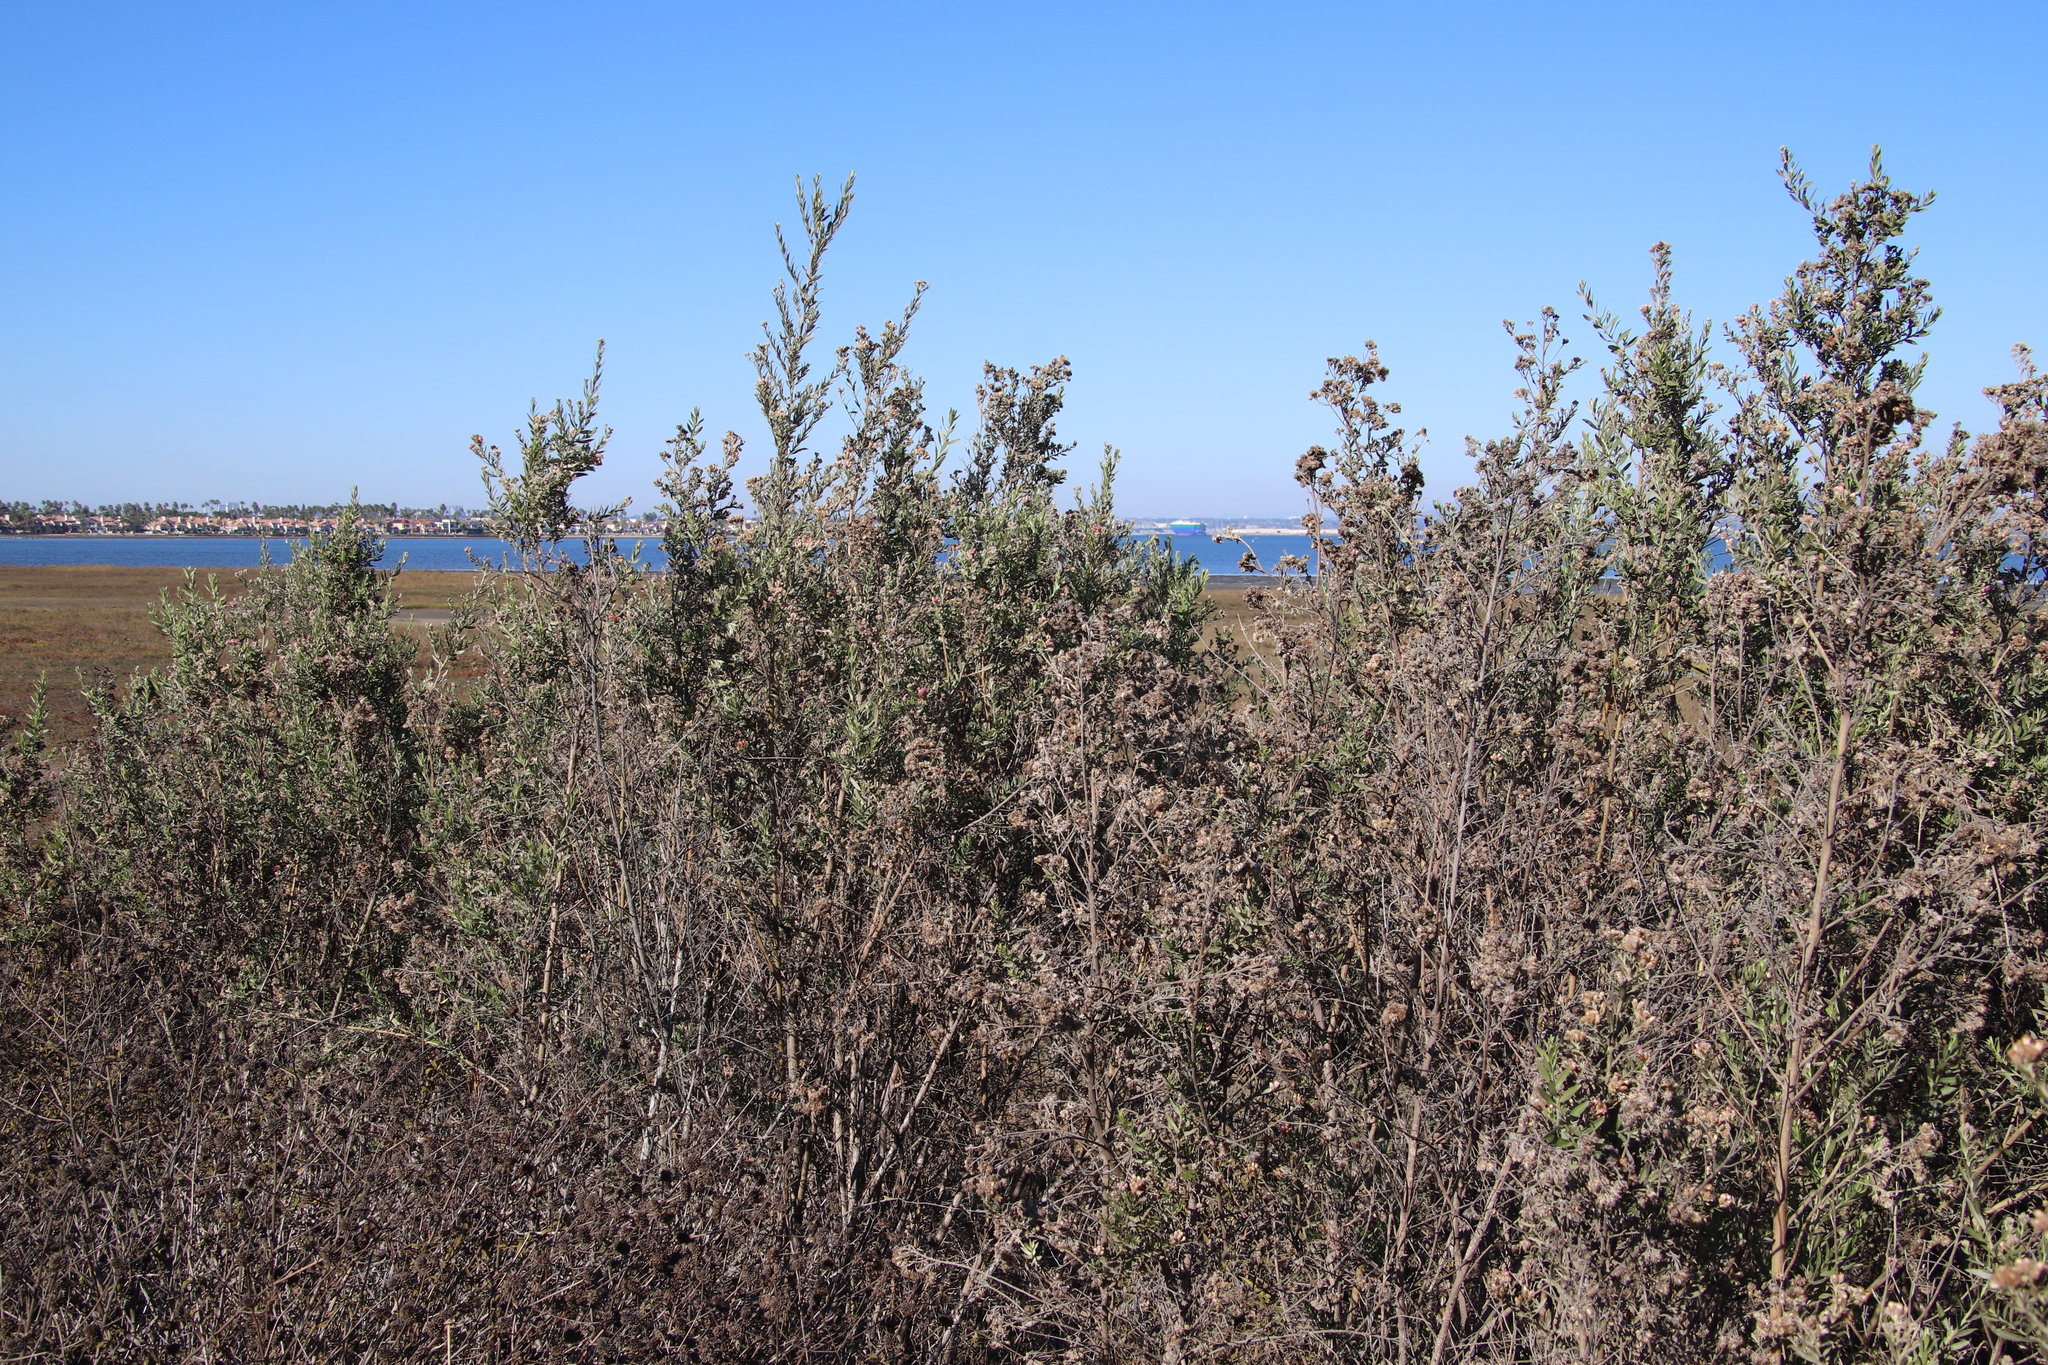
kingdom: Plantae
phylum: Tracheophyta
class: Magnoliopsida
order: Asterales
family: Asteraceae
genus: Pluchea
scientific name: Pluchea sericea
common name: Arrow-weed
